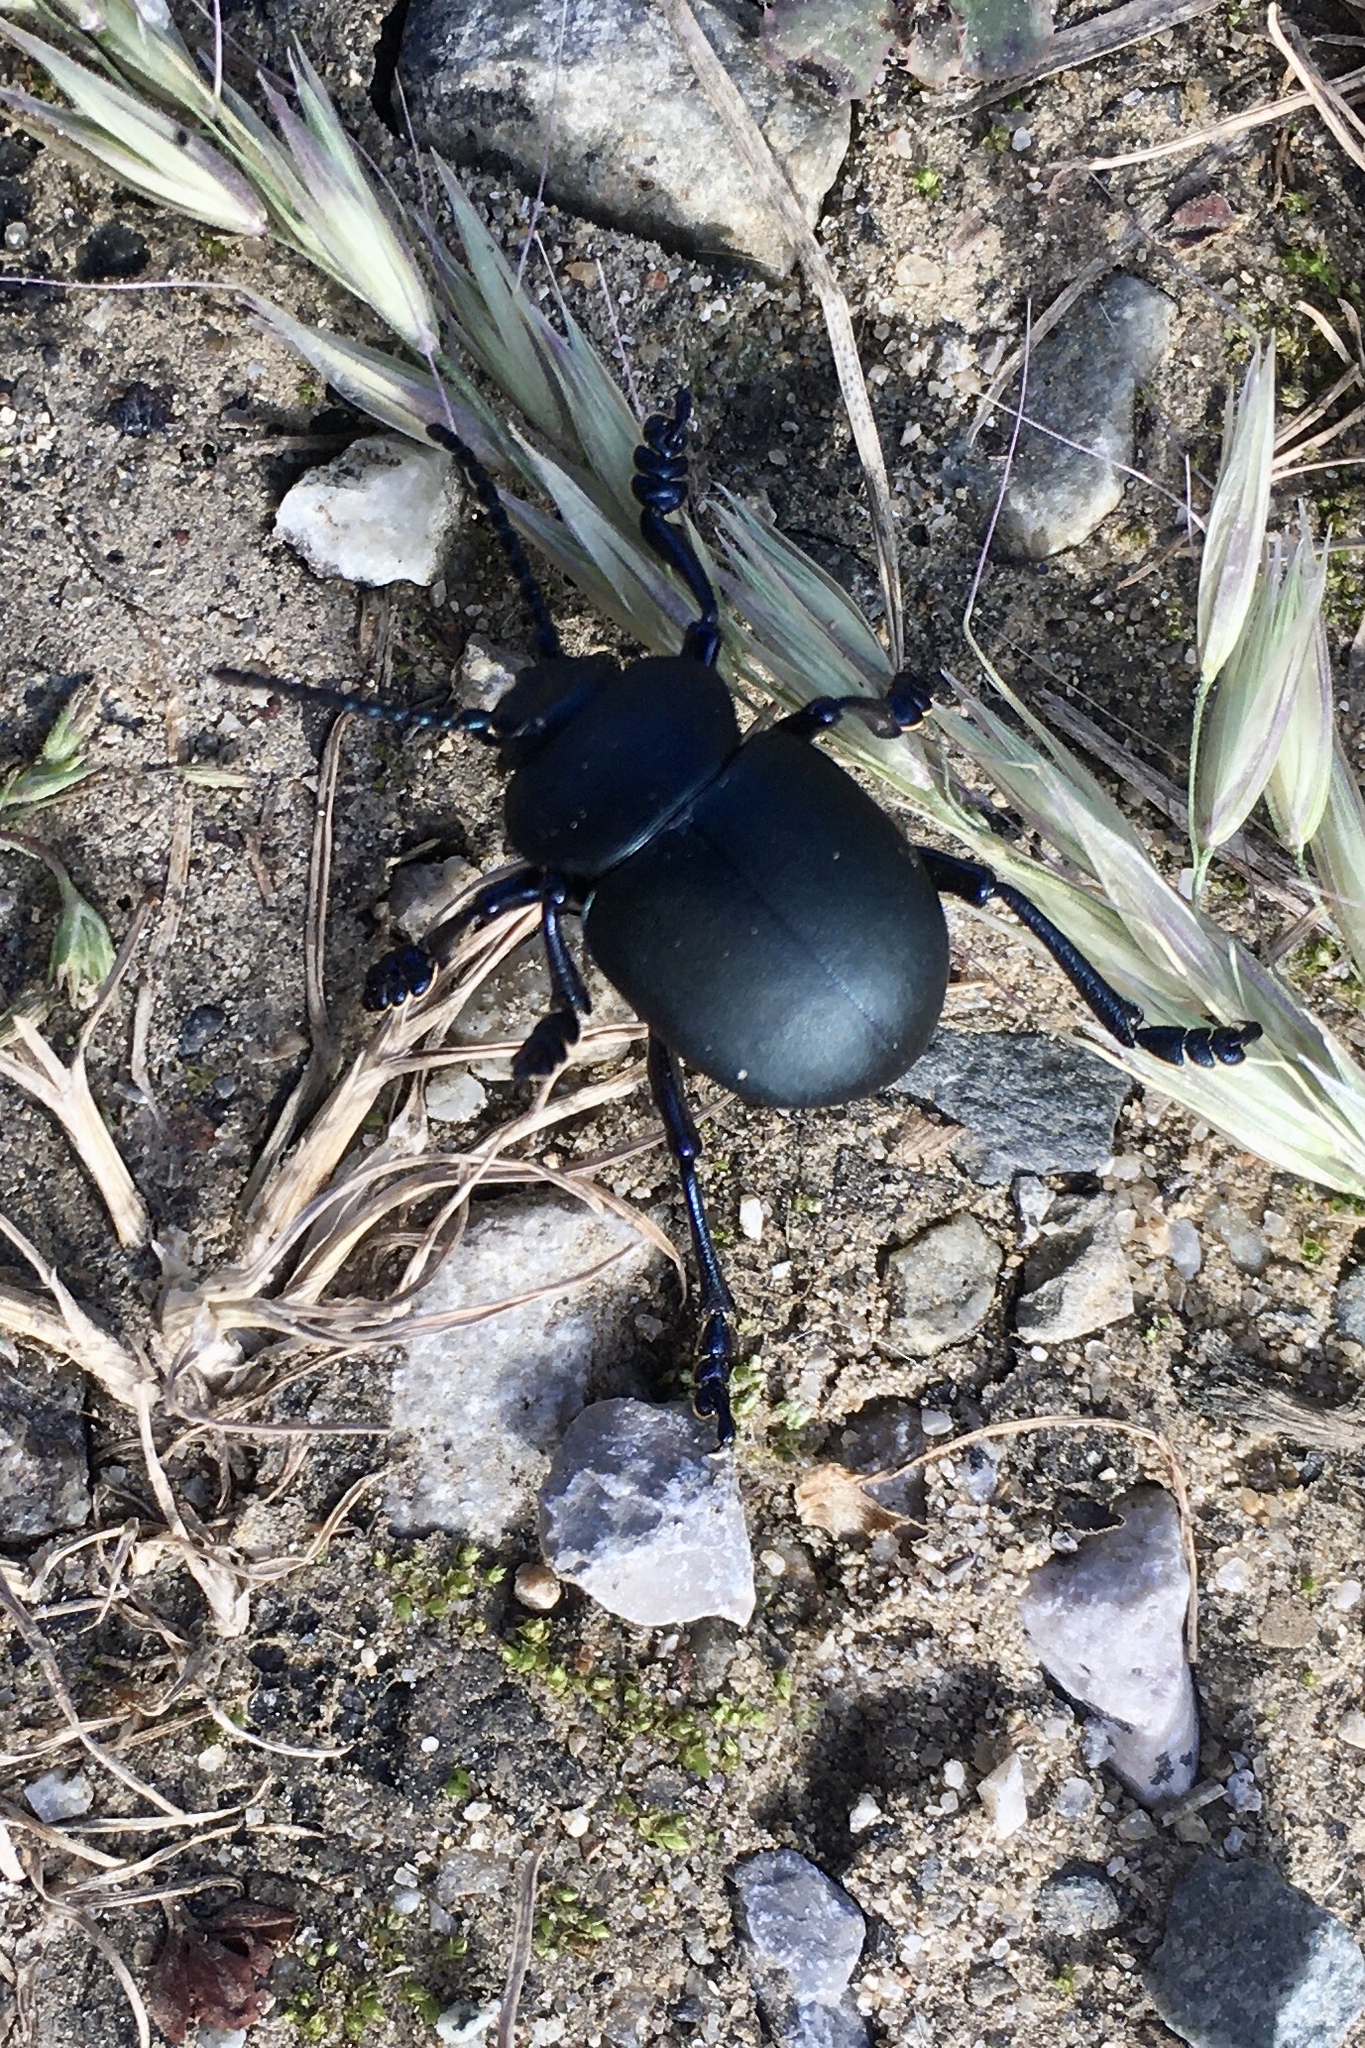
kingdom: Animalia
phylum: Arthropoda
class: Insecta
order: Coleoptera
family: Chrysomelidae
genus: Timarcha
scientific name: Timarcha tenebricosa
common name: Bloody-nosed beetle
